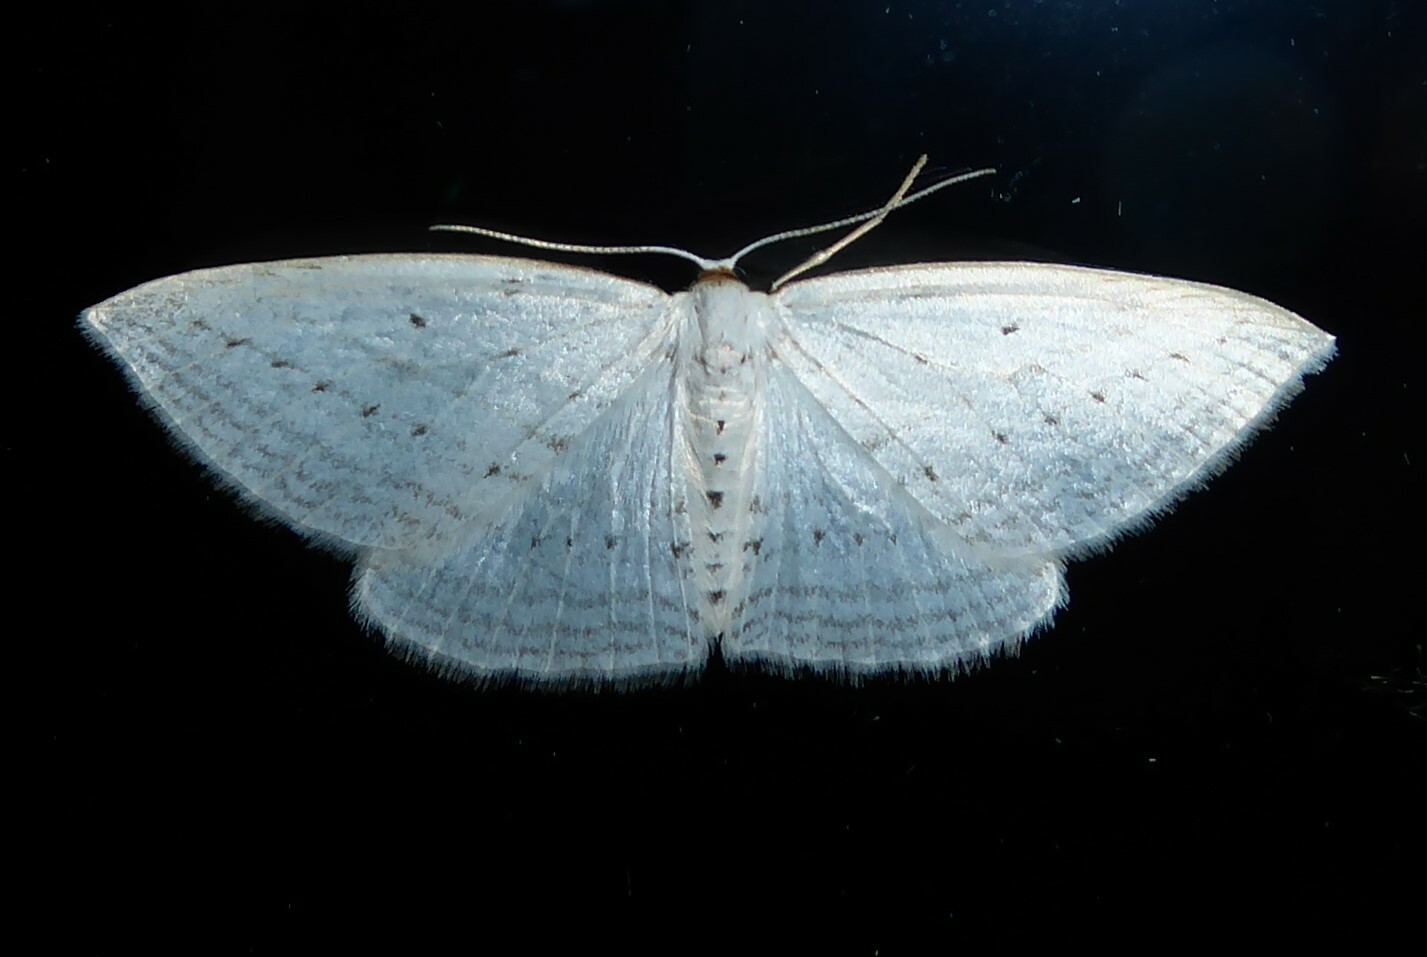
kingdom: Animalia
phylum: Arthropoda
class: Insecta
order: Lepidoptera
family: Geometridae
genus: Orthoclydon
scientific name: Orthoclydon praefectata
